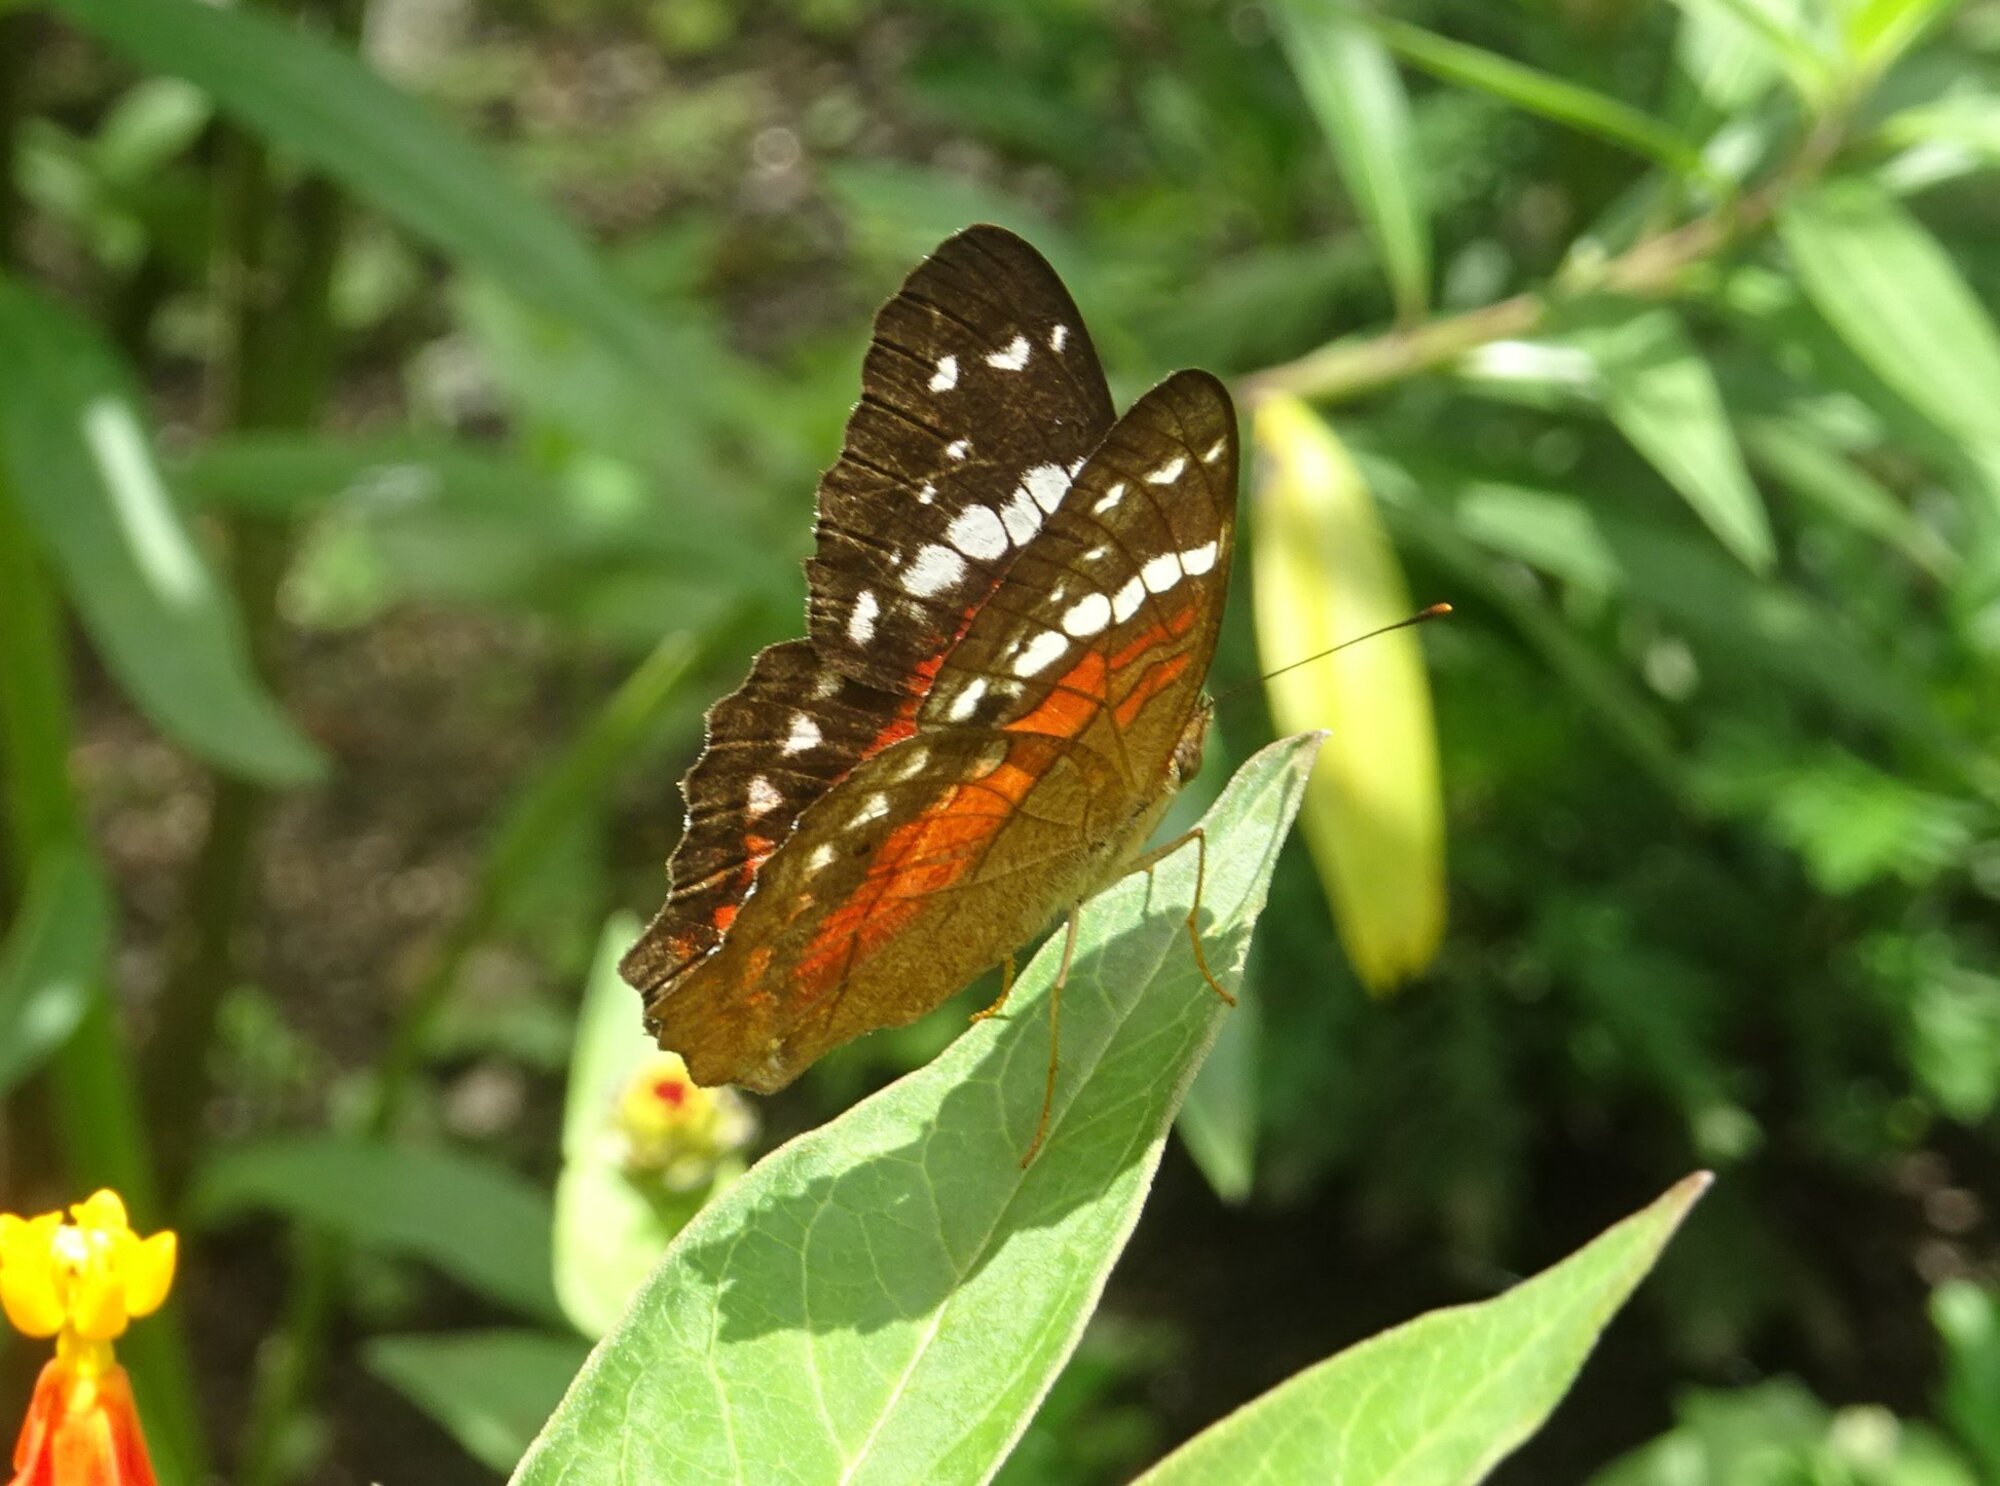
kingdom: Animalia
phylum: Arthropoda
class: Insecta
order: Lepidoptera
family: Nymphalidae
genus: Anartia
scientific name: Anartia amathea
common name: Red peacock
